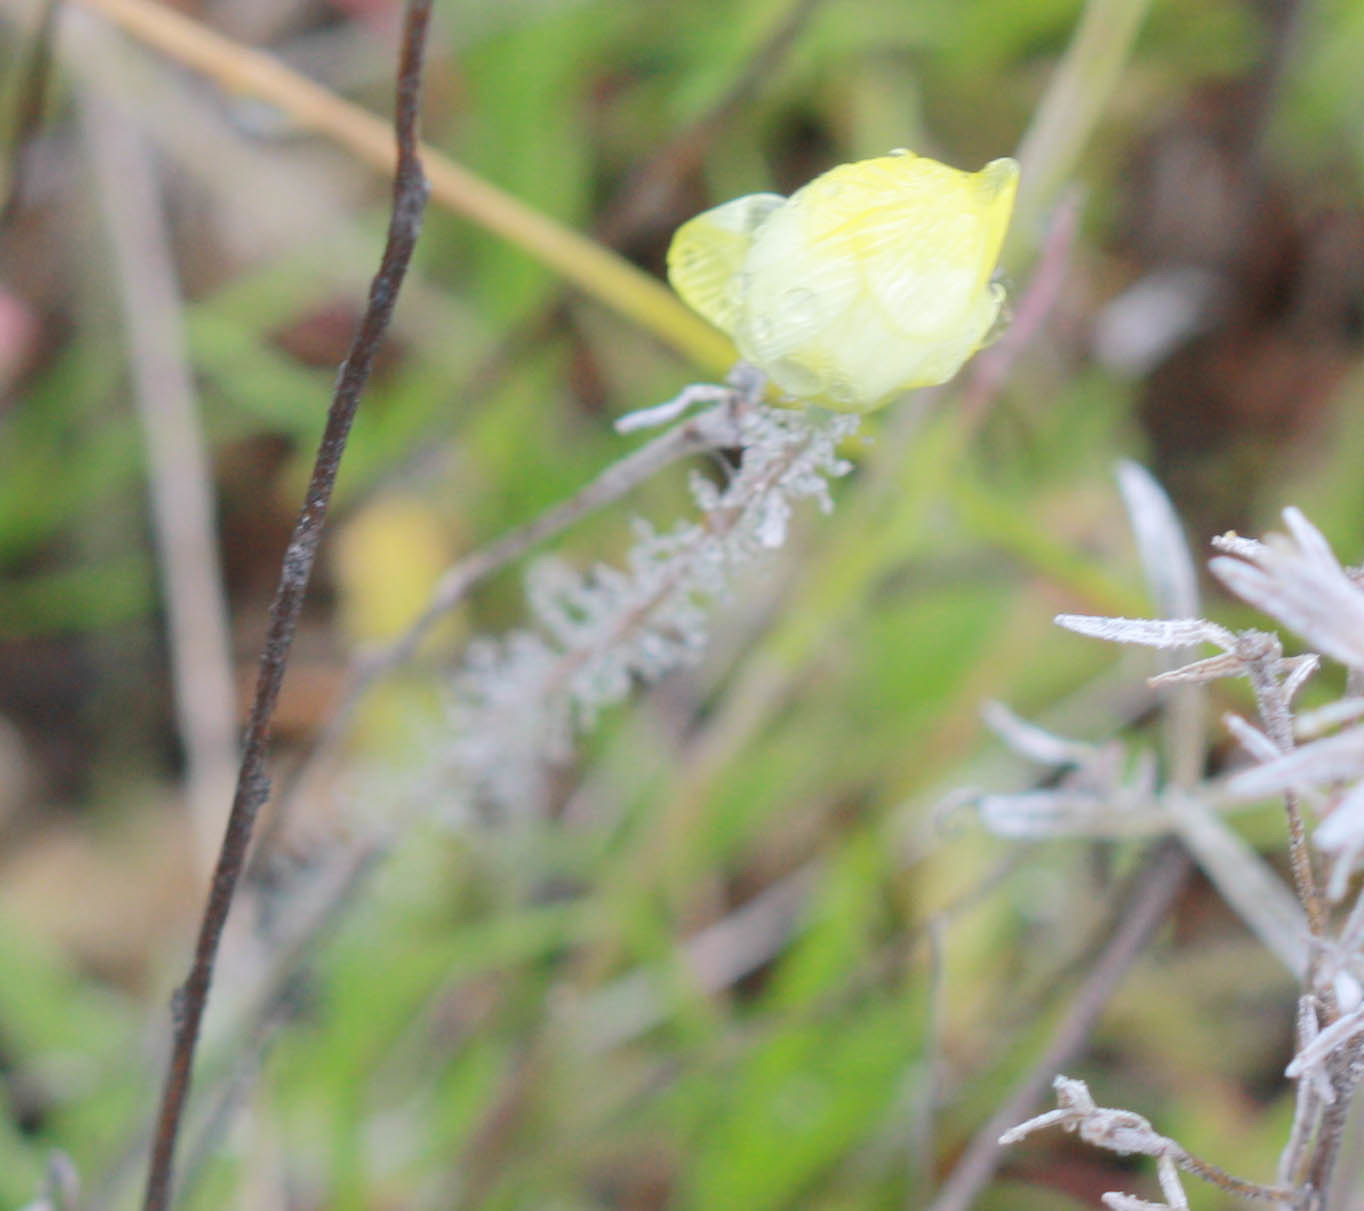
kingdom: Plantae
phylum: Tracheophyta
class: Magnoliopsida
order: Ranunculales
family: Papaveraceae
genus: Platystemon
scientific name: Platystemon californicus
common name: Cream-cups
